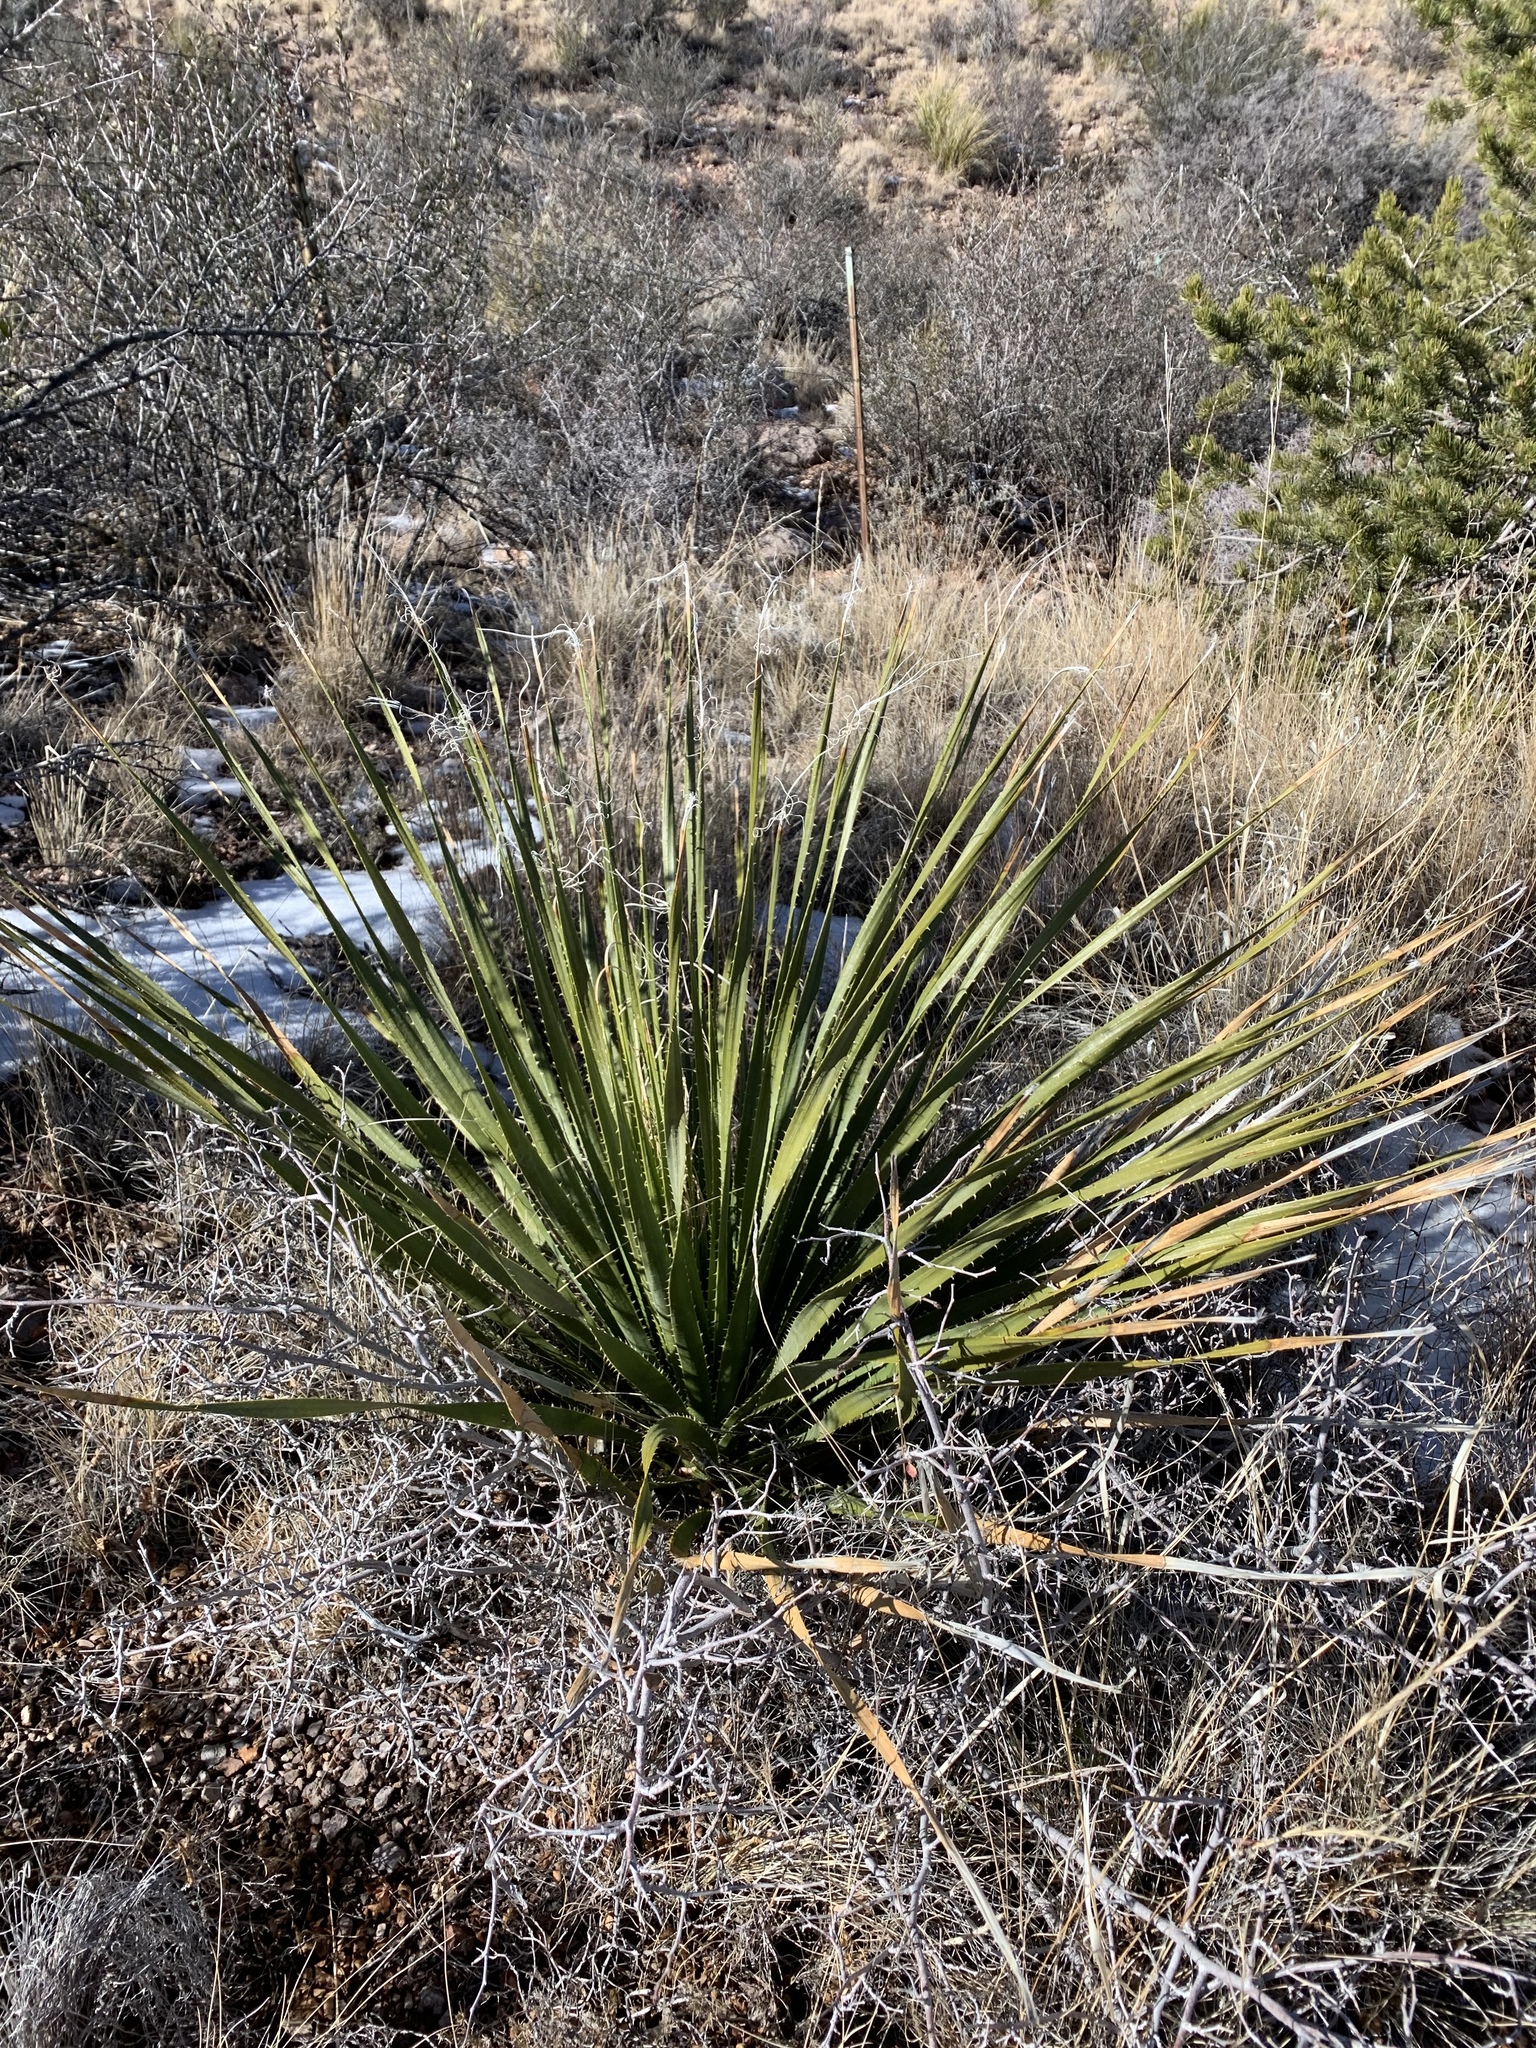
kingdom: Plantae
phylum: Tracheophyta
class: Liliopsida
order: Asparagales
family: Asparagaceae
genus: Dasylirion
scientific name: Dasylirion wheeleri
